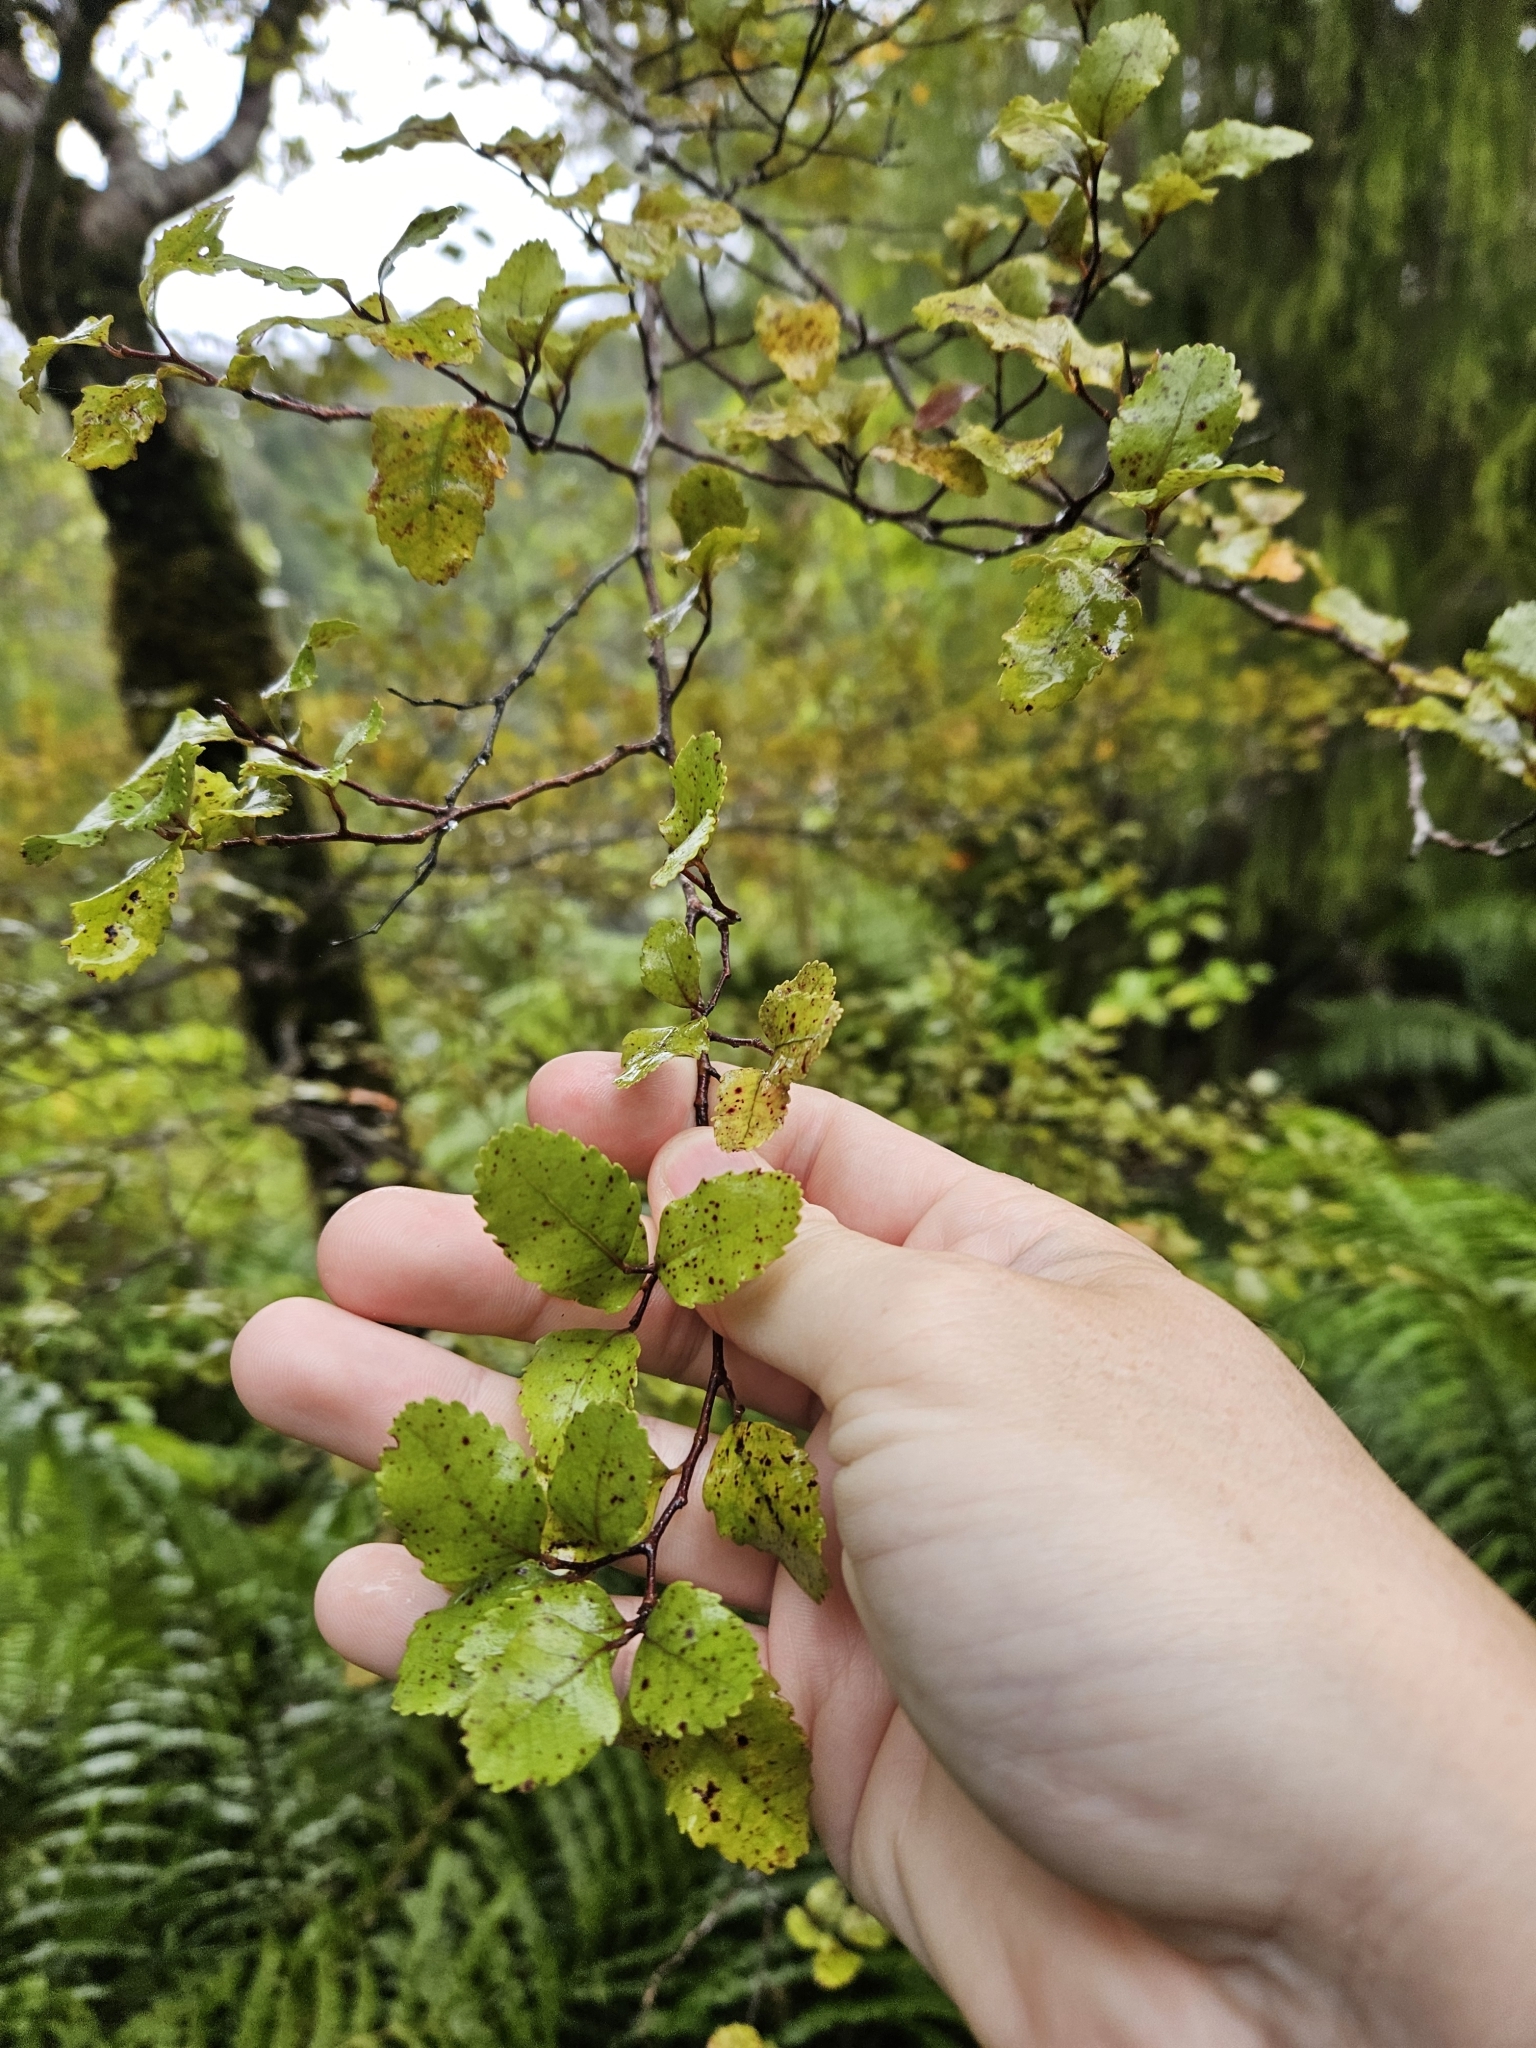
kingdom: Plantae
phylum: Tracheophyta
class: Magnoliopsida
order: Fagales
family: Nothofagaceae
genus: Nothofagus
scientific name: Nothofagus truncata
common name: Hard beech
